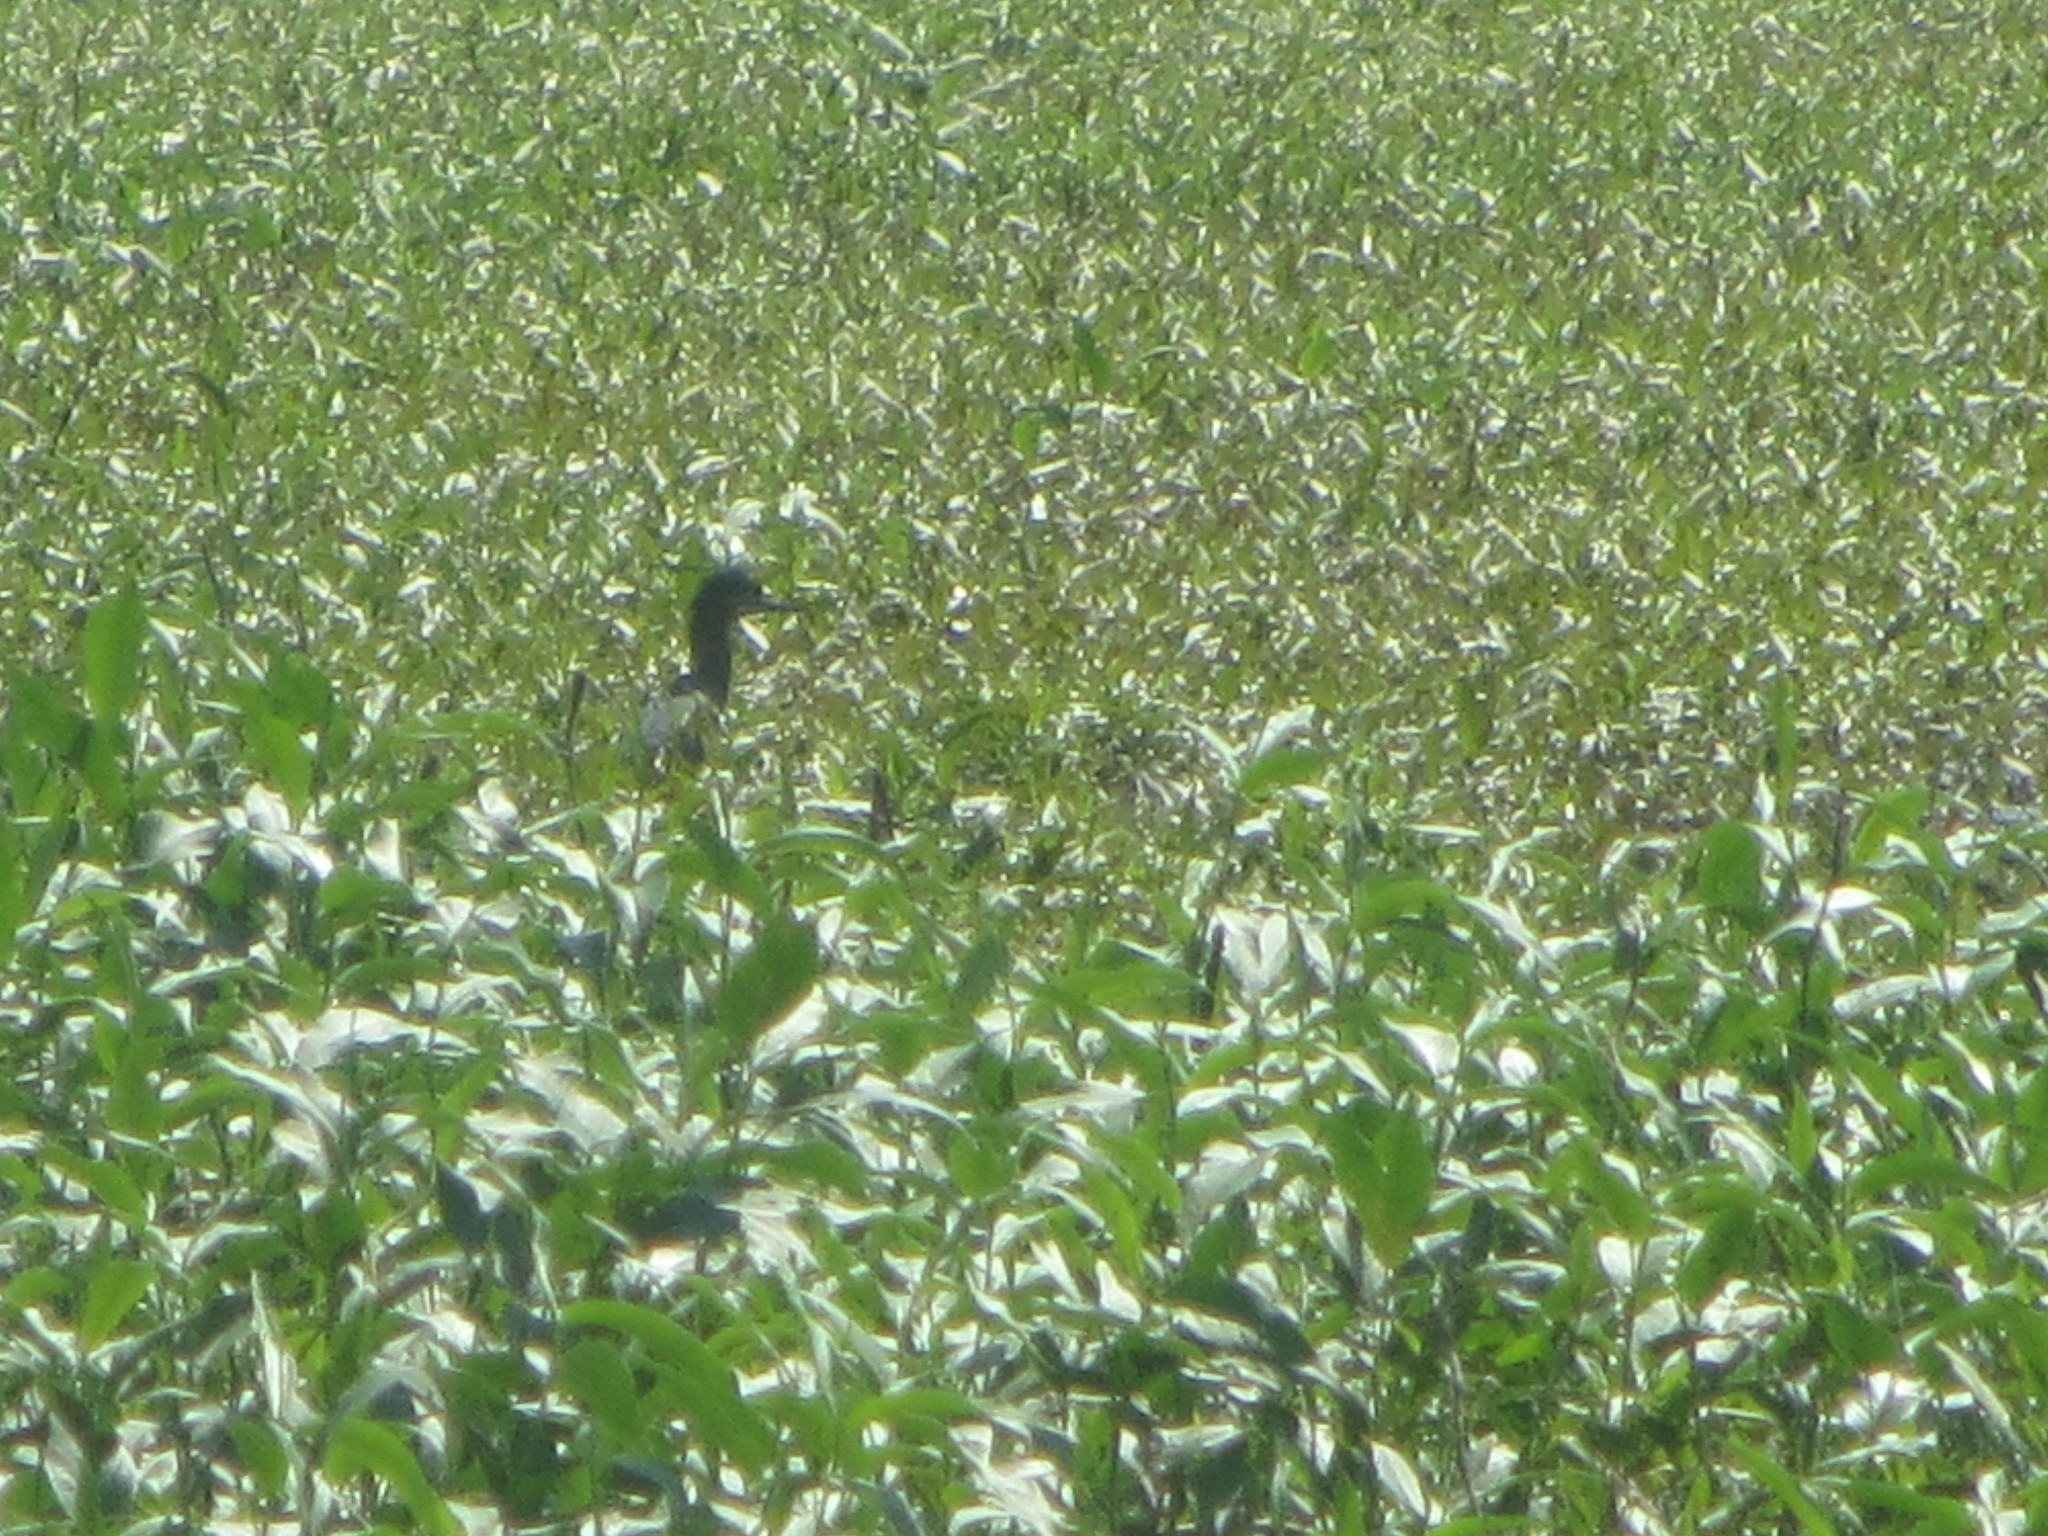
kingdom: Animalia
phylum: Chordata
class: Aves
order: Pelecaniformes
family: Ardeidae
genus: Butorides
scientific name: Butorides virescens
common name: Green heron
